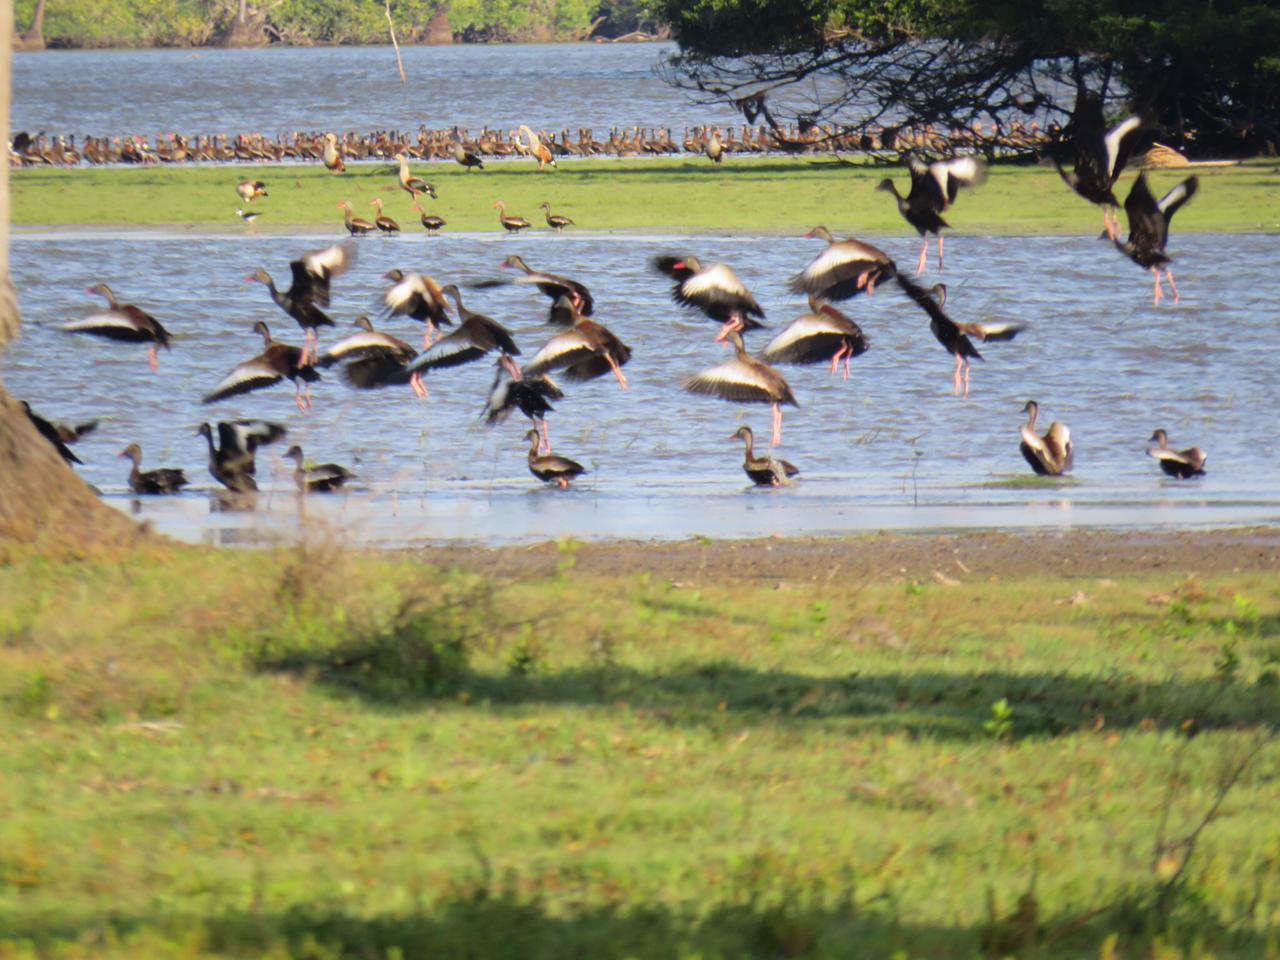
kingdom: Animalia
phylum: Chordata
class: Aves
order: Anseriformes
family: Anatidae
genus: Dendrocygna
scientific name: Dendrocygna autumnalis
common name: Black-bellied whistling duck
